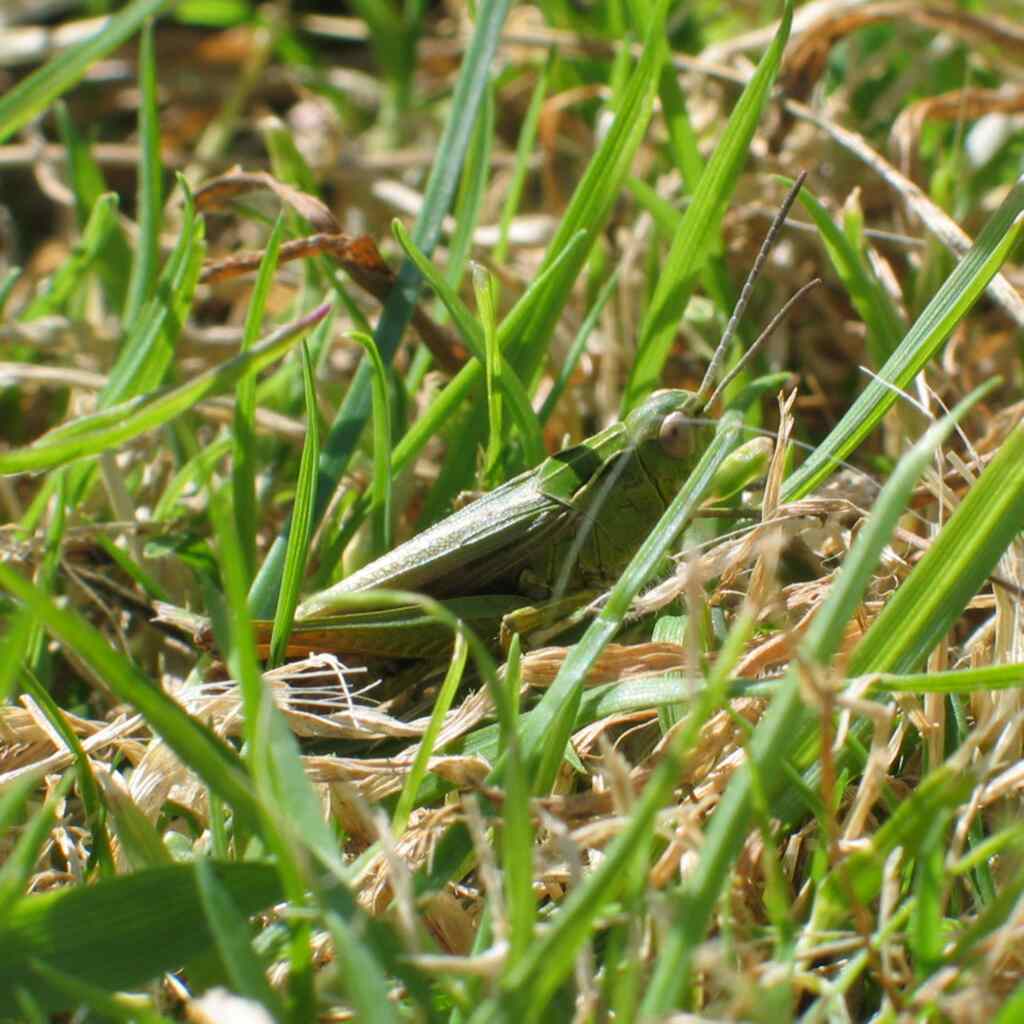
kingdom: Animalia
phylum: Arthropoda
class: Insecta
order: Orthoptera
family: Acrididae
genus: Omocestus
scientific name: Omocestus viridulus
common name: Common green grasshopper
